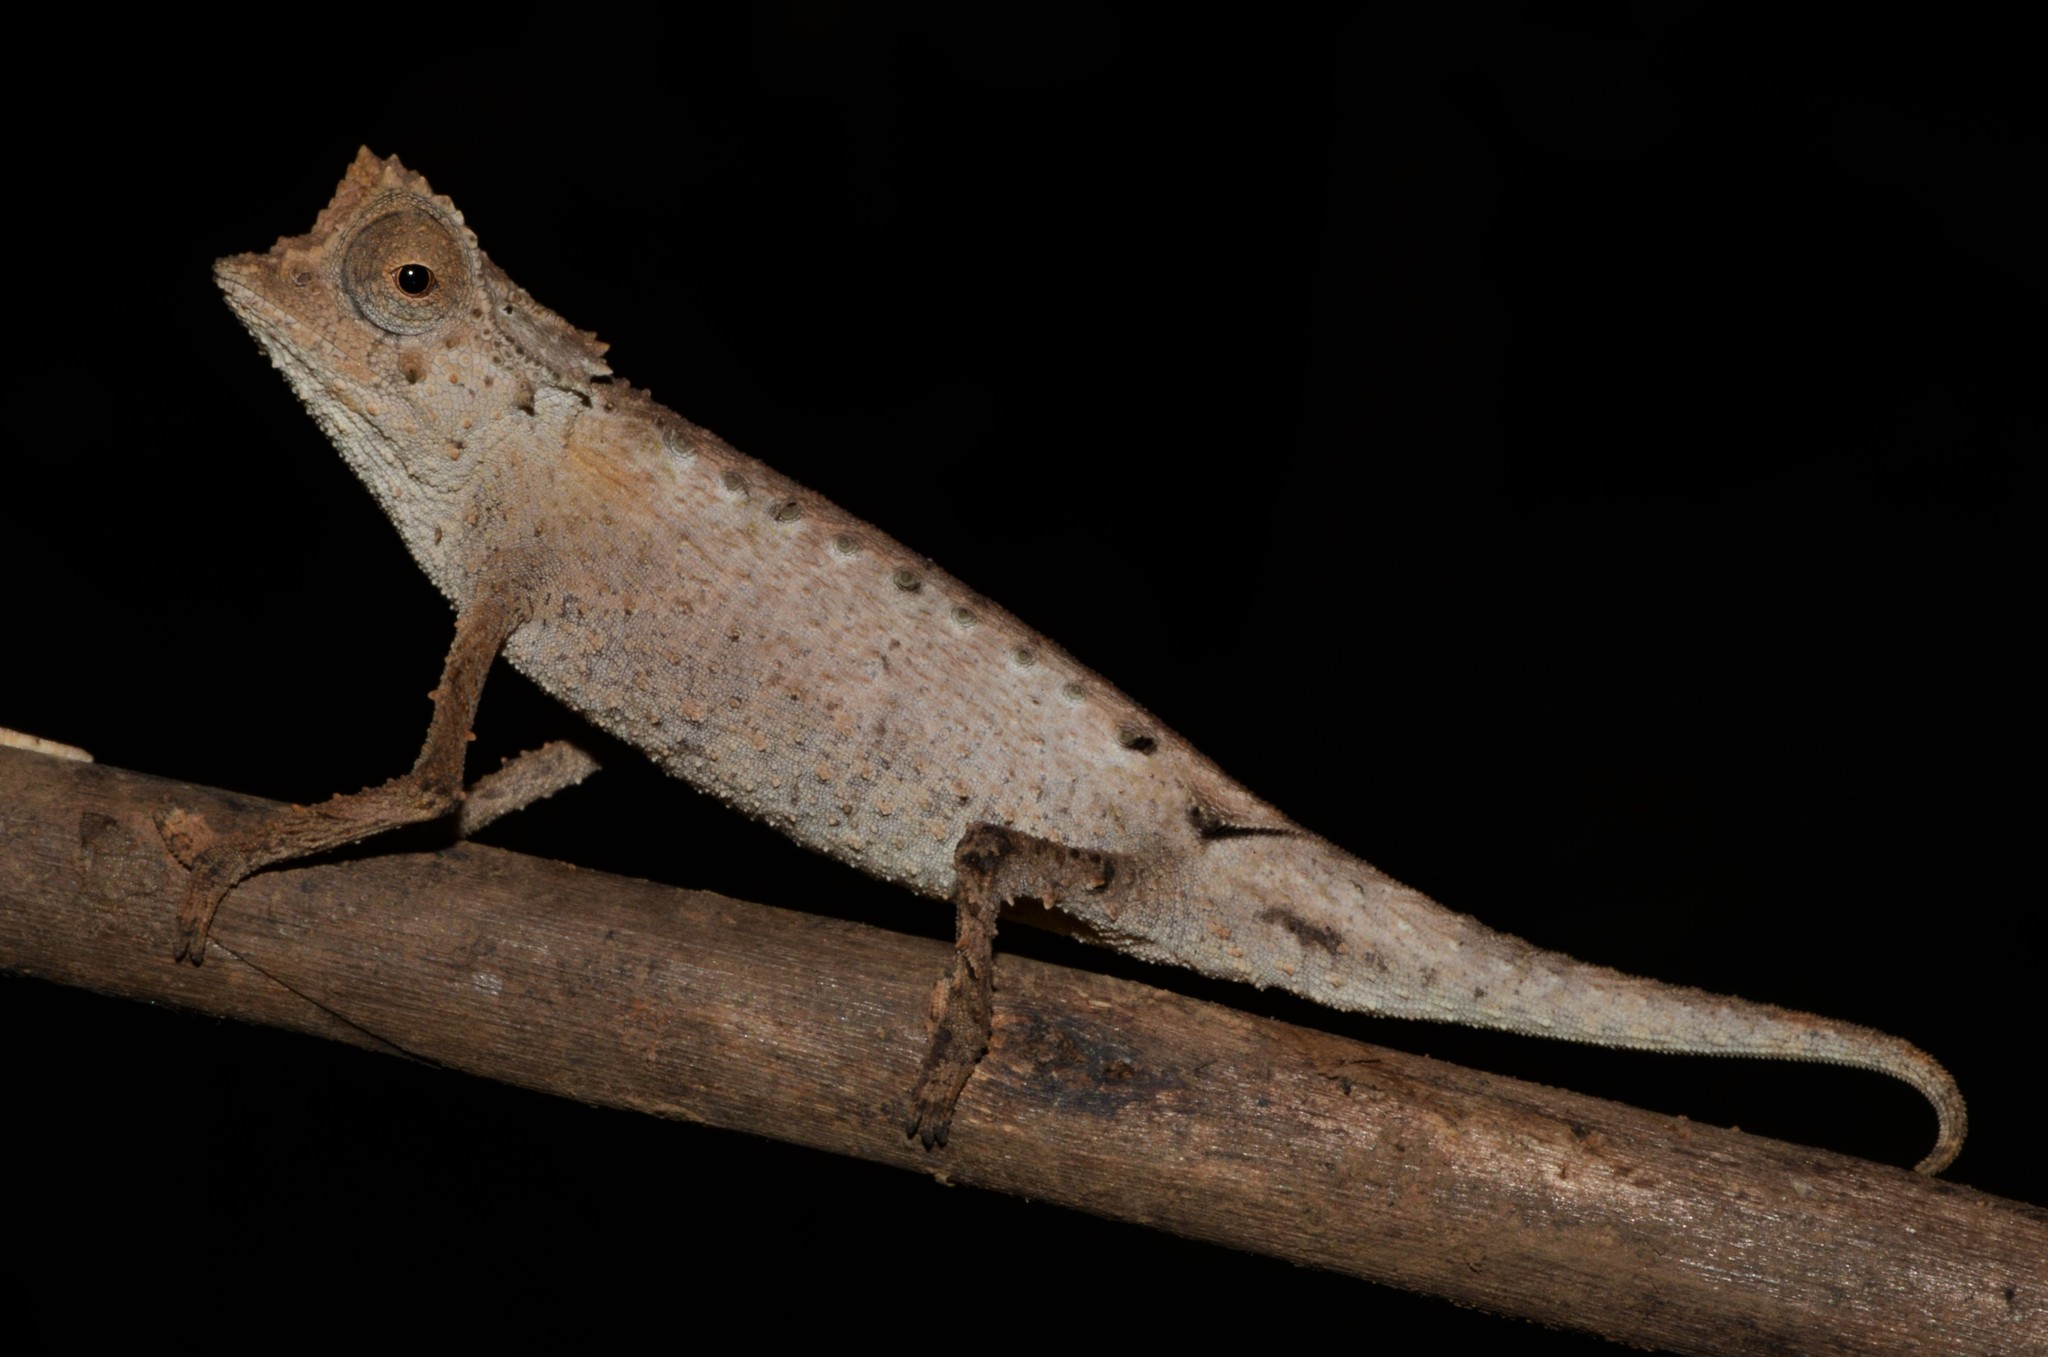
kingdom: Animalia
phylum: Chordata
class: Squamata
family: Chamaeleonidae
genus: Brookesia
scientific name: Brookesia stumpffi
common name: Plated leaf chameleon
